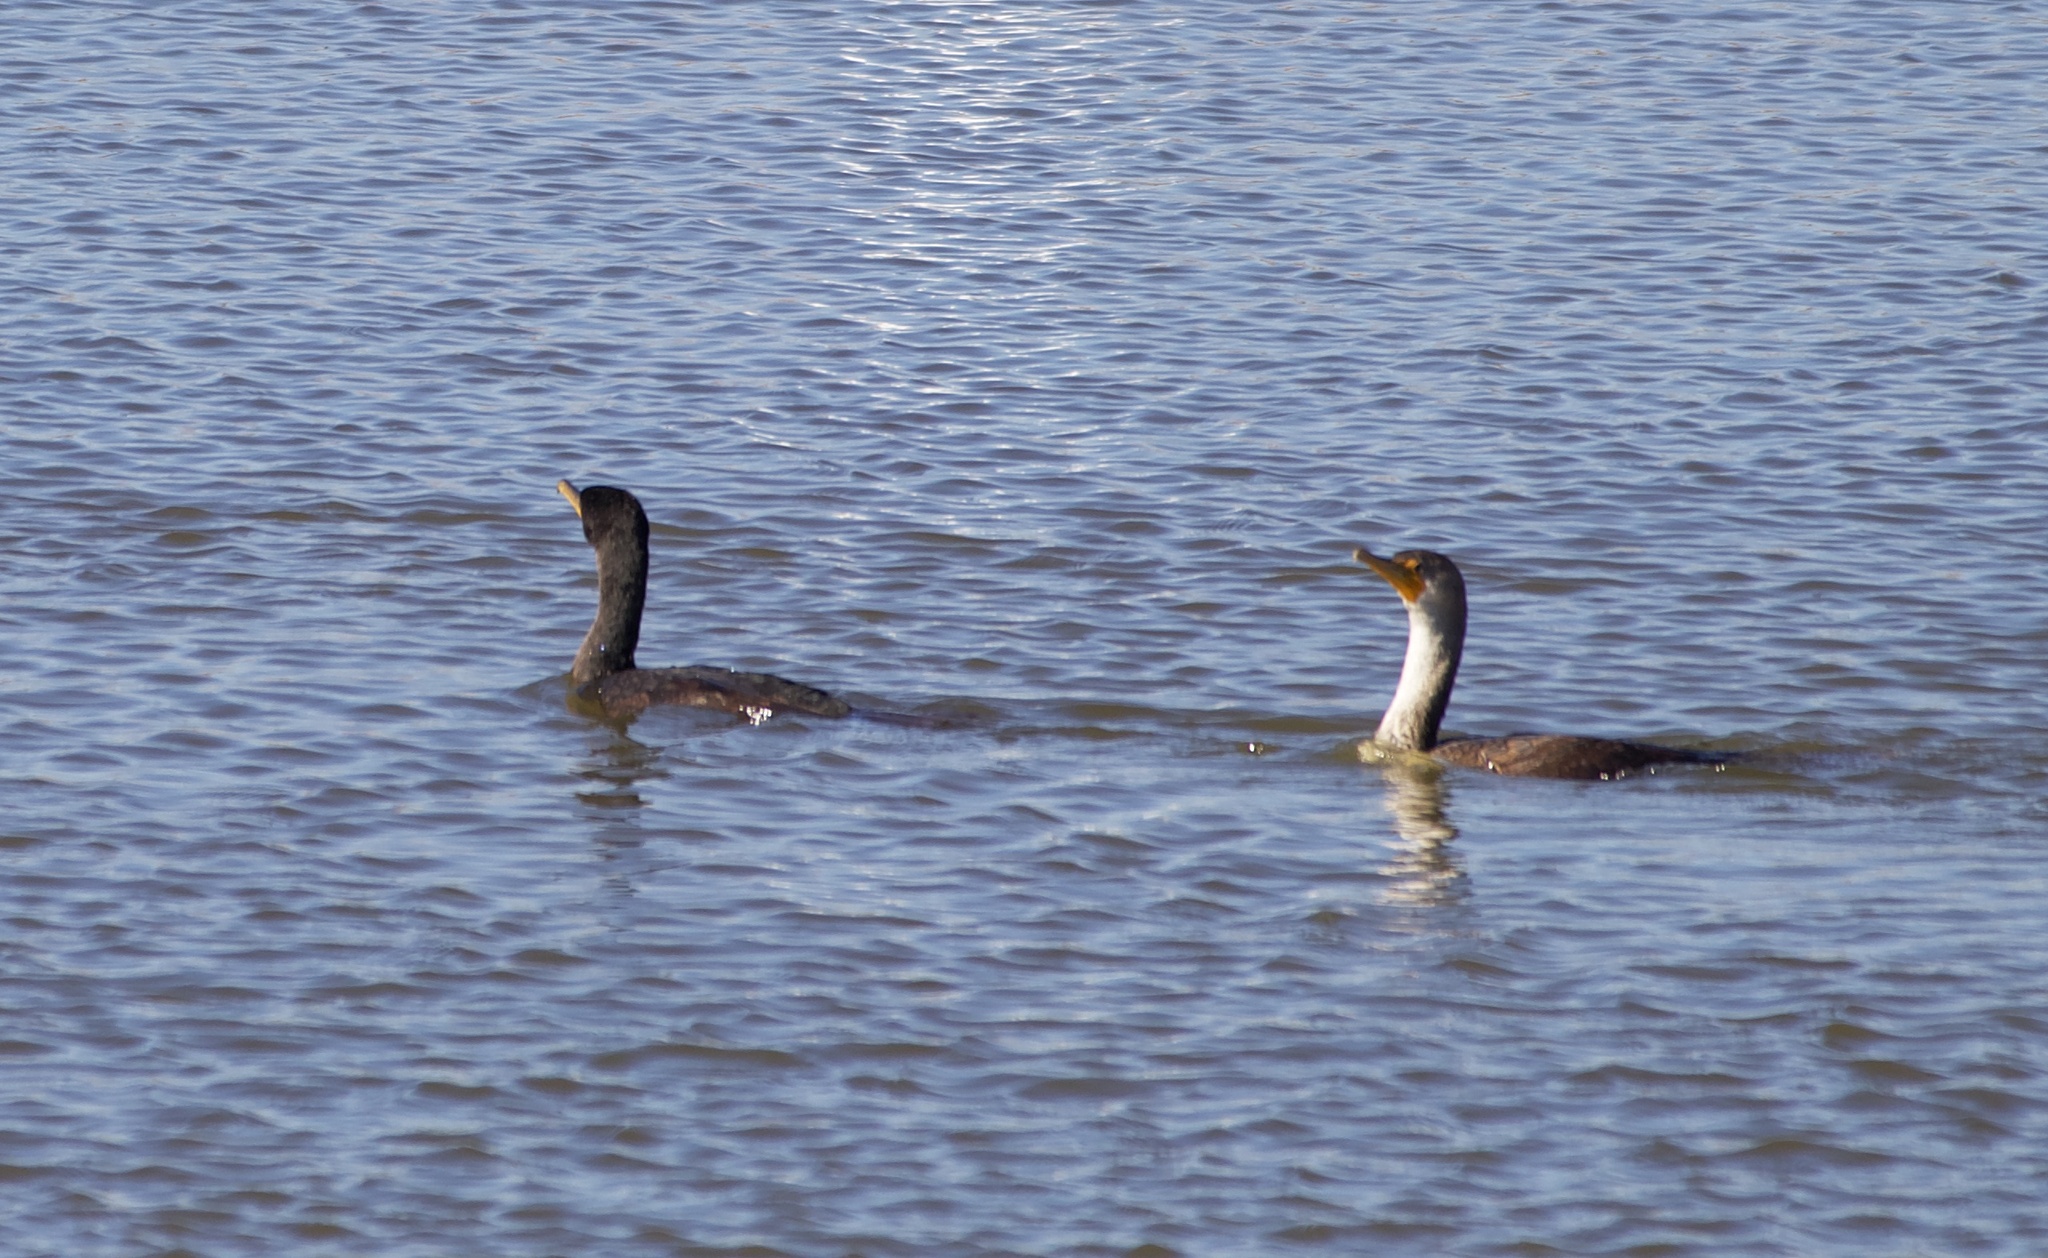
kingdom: Animalia
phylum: Chordata
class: Aves
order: Suliformes
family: Phalacrocoracidae
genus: Phalacrocorax
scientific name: Phalacrocorax auritus
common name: Double-crested cormorant
